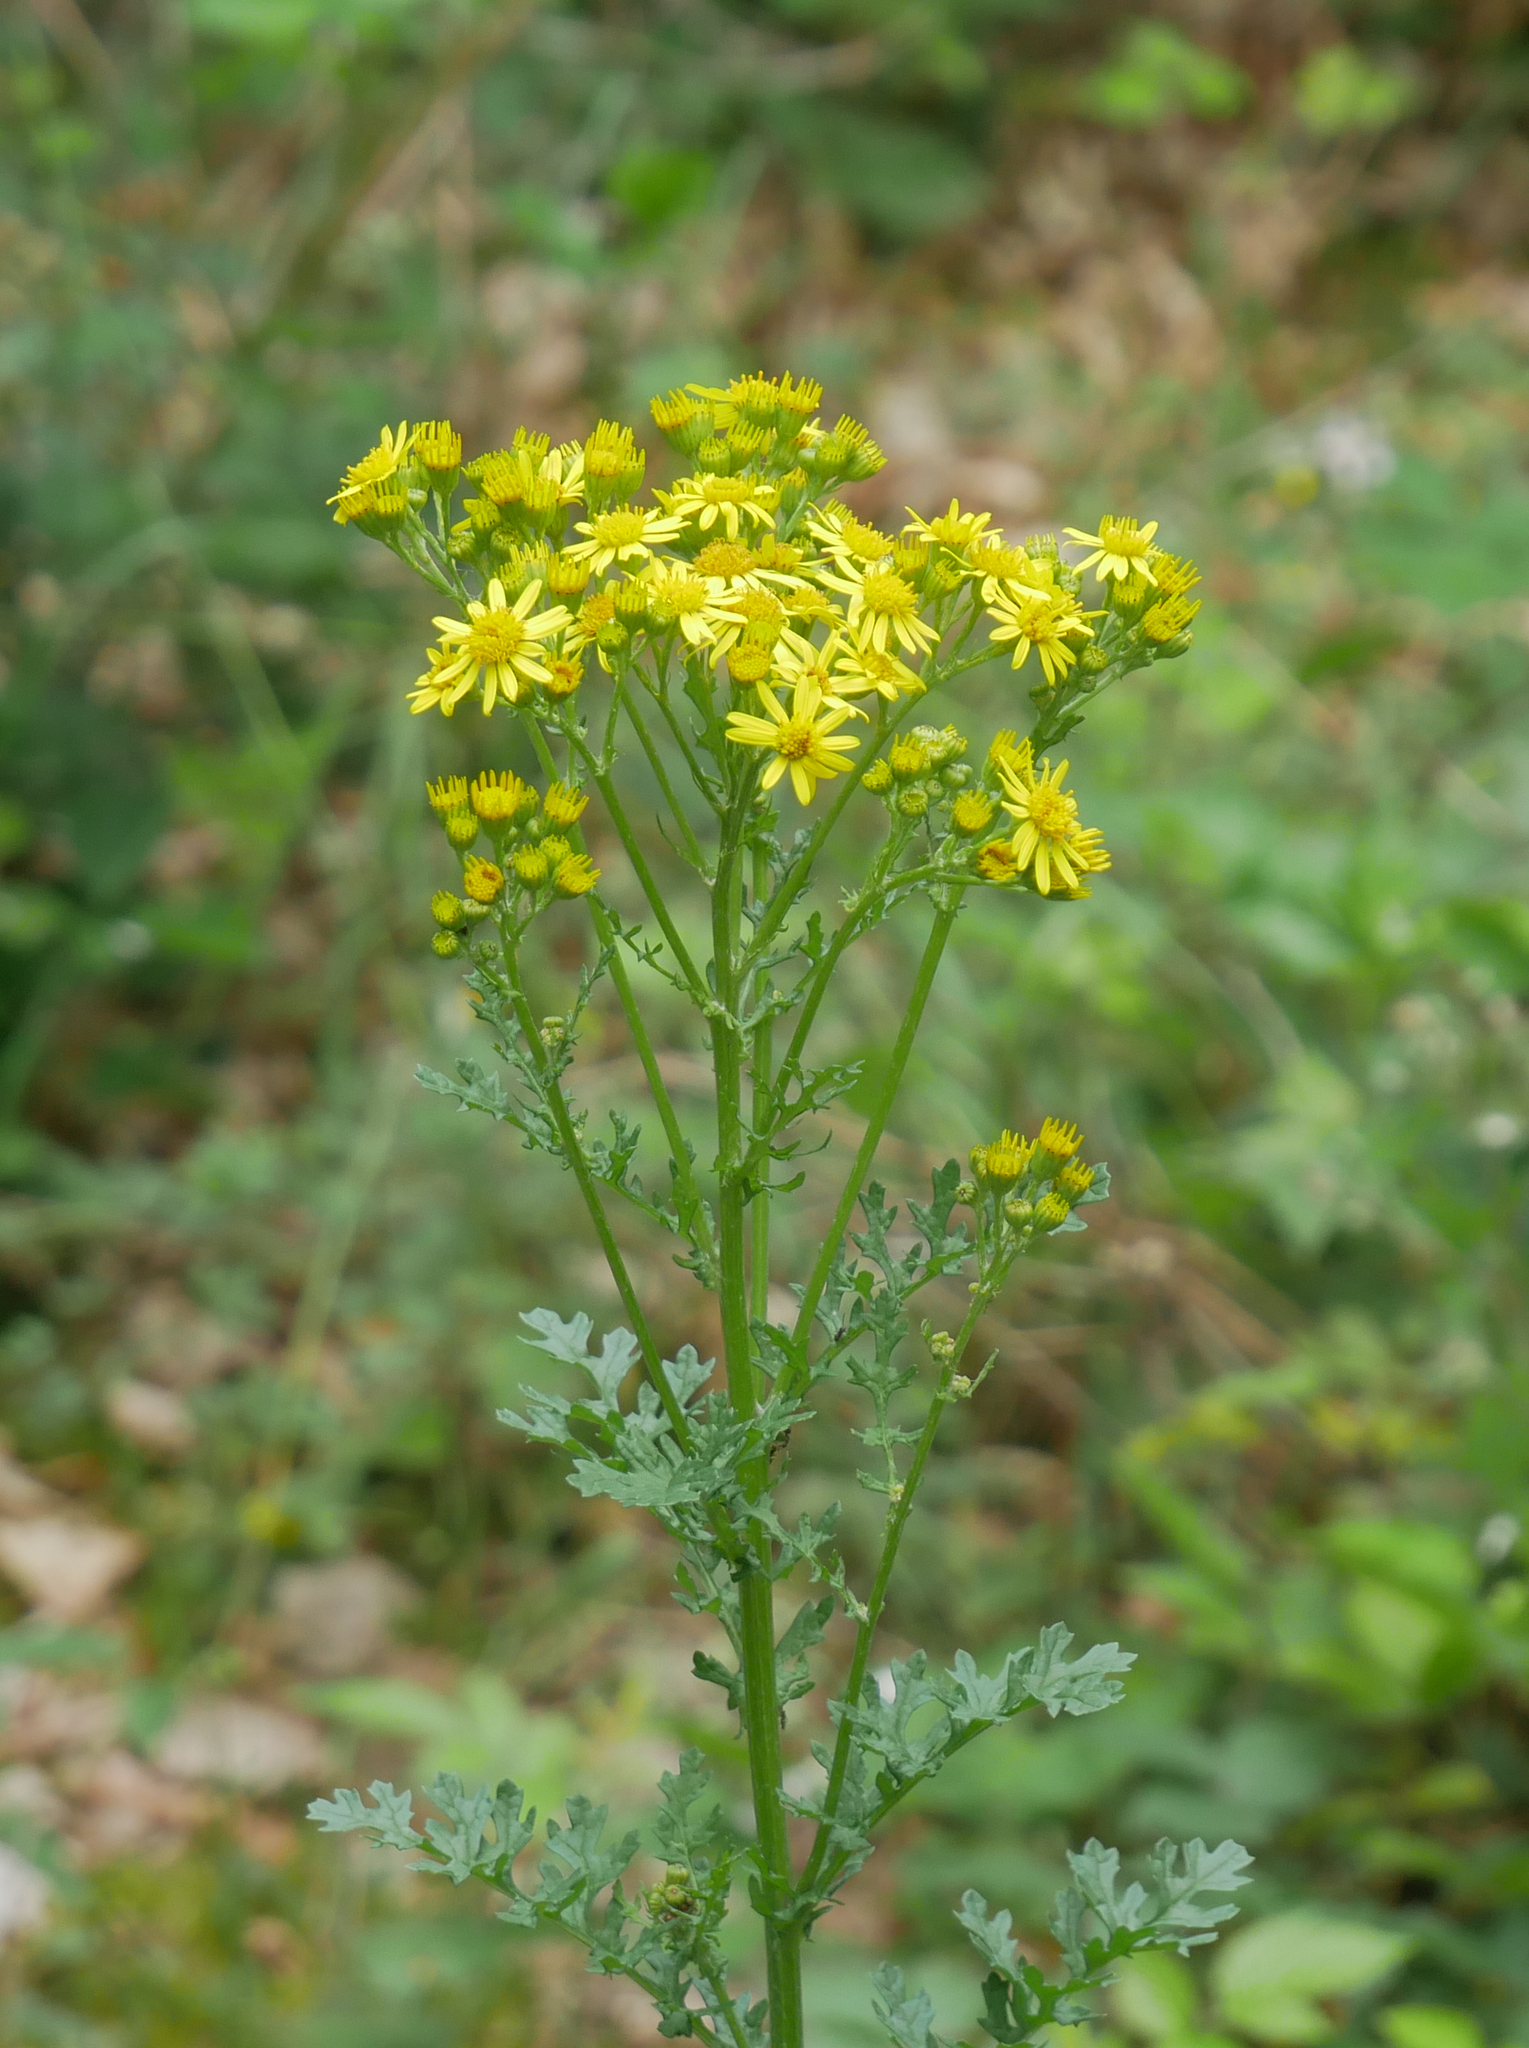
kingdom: Plantae
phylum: Tracheophyta
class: Magnoliopsida
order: Asterales
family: Asteraceae
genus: Jacobaea
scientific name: Jacobaea vulgaris
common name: Stinking willie
